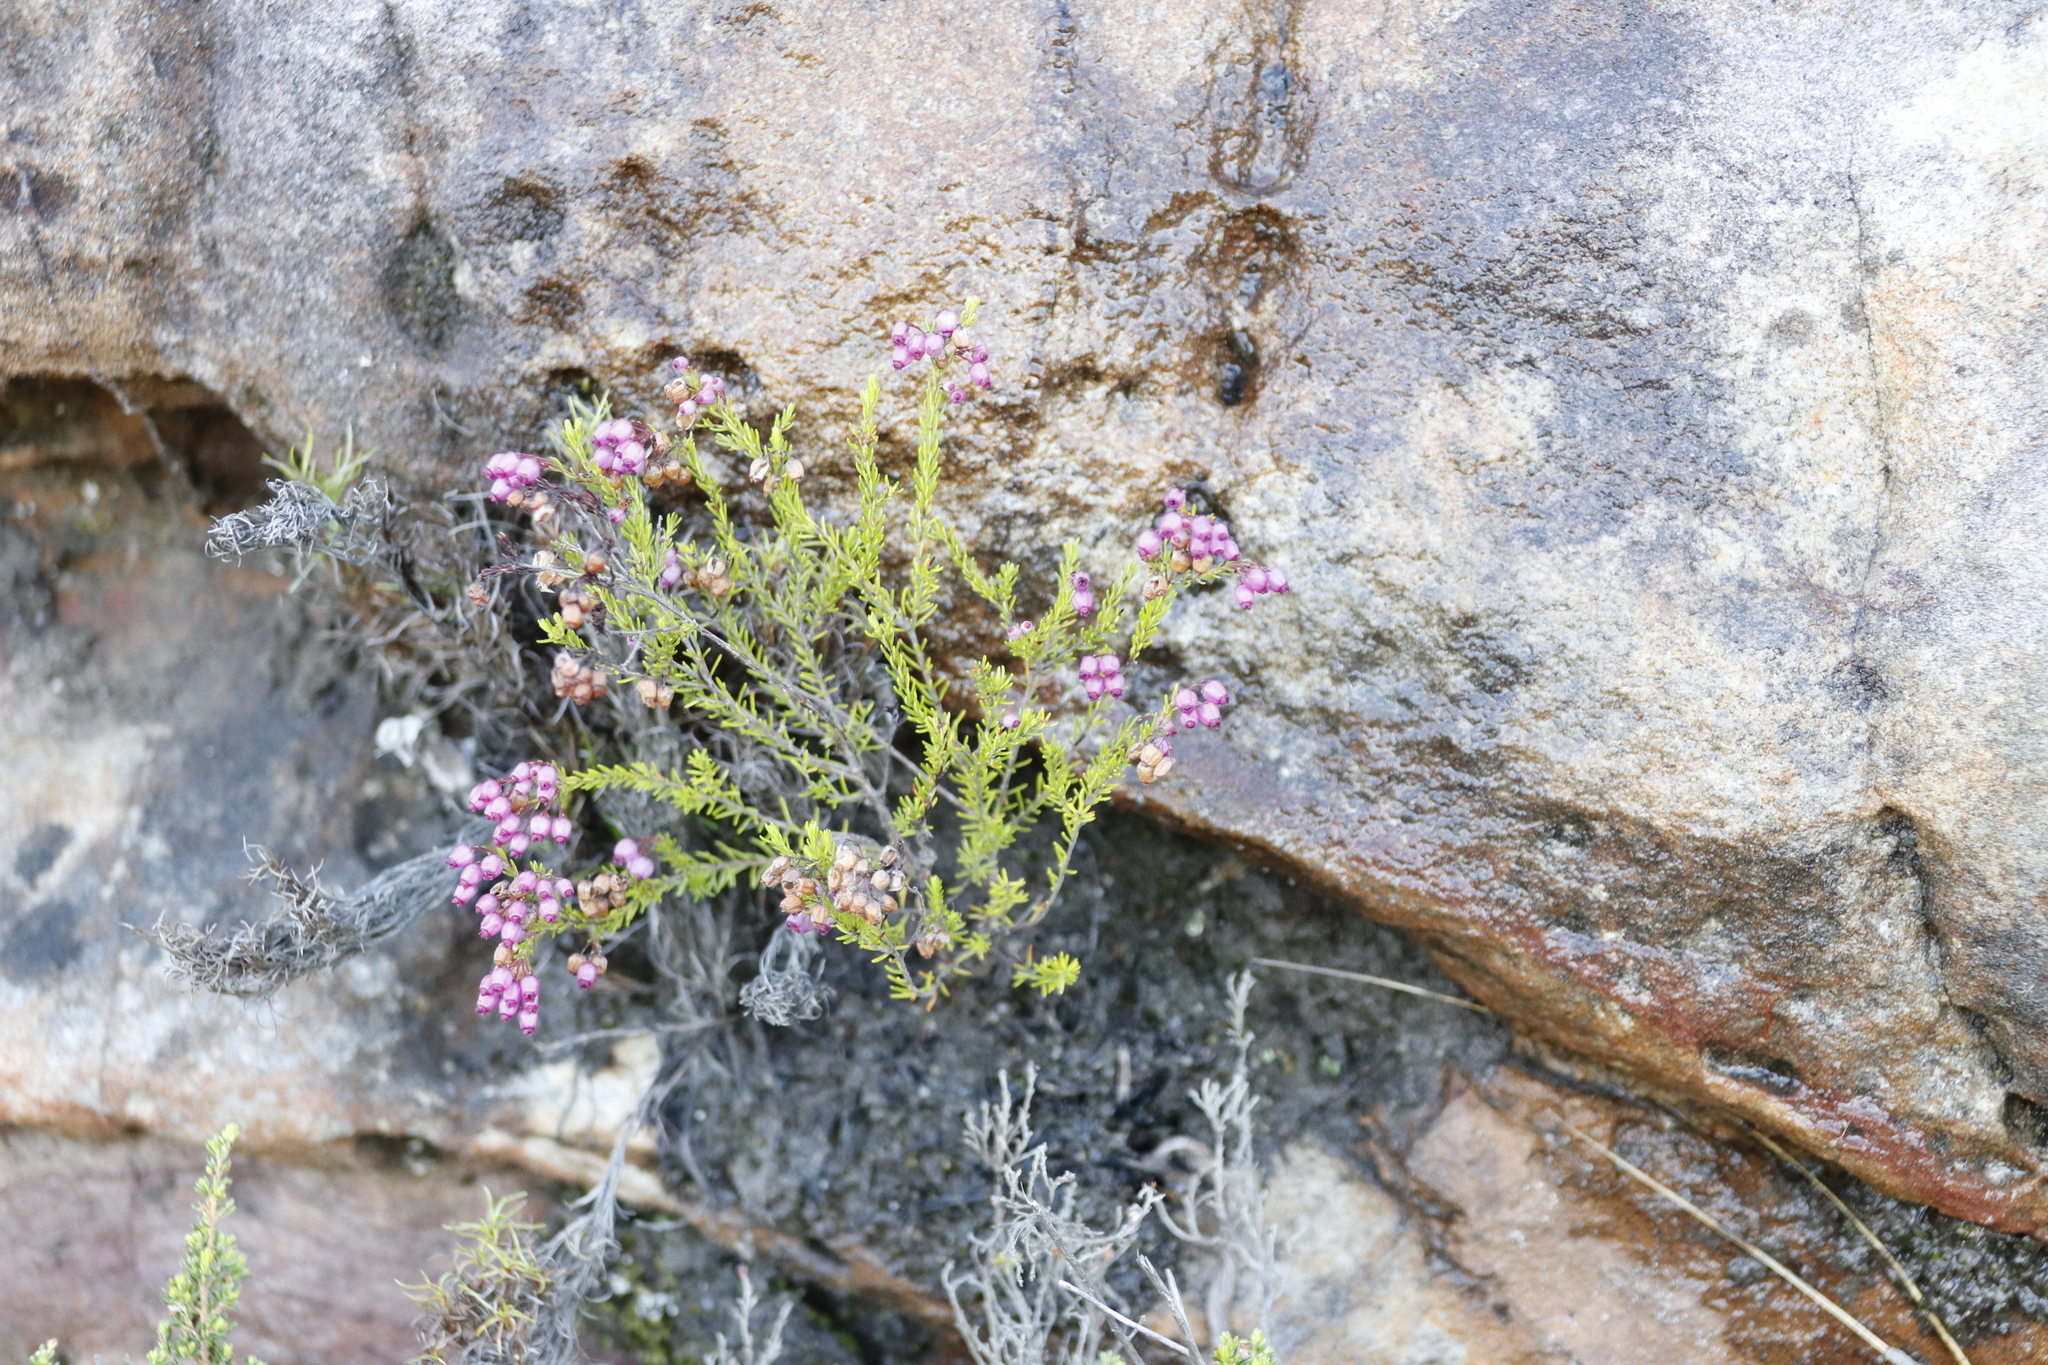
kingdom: Plantae
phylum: Tracheophyta
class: Magnoliopsida
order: Ericales
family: Ericaceae
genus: Erica
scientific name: Erica multumbellifera
